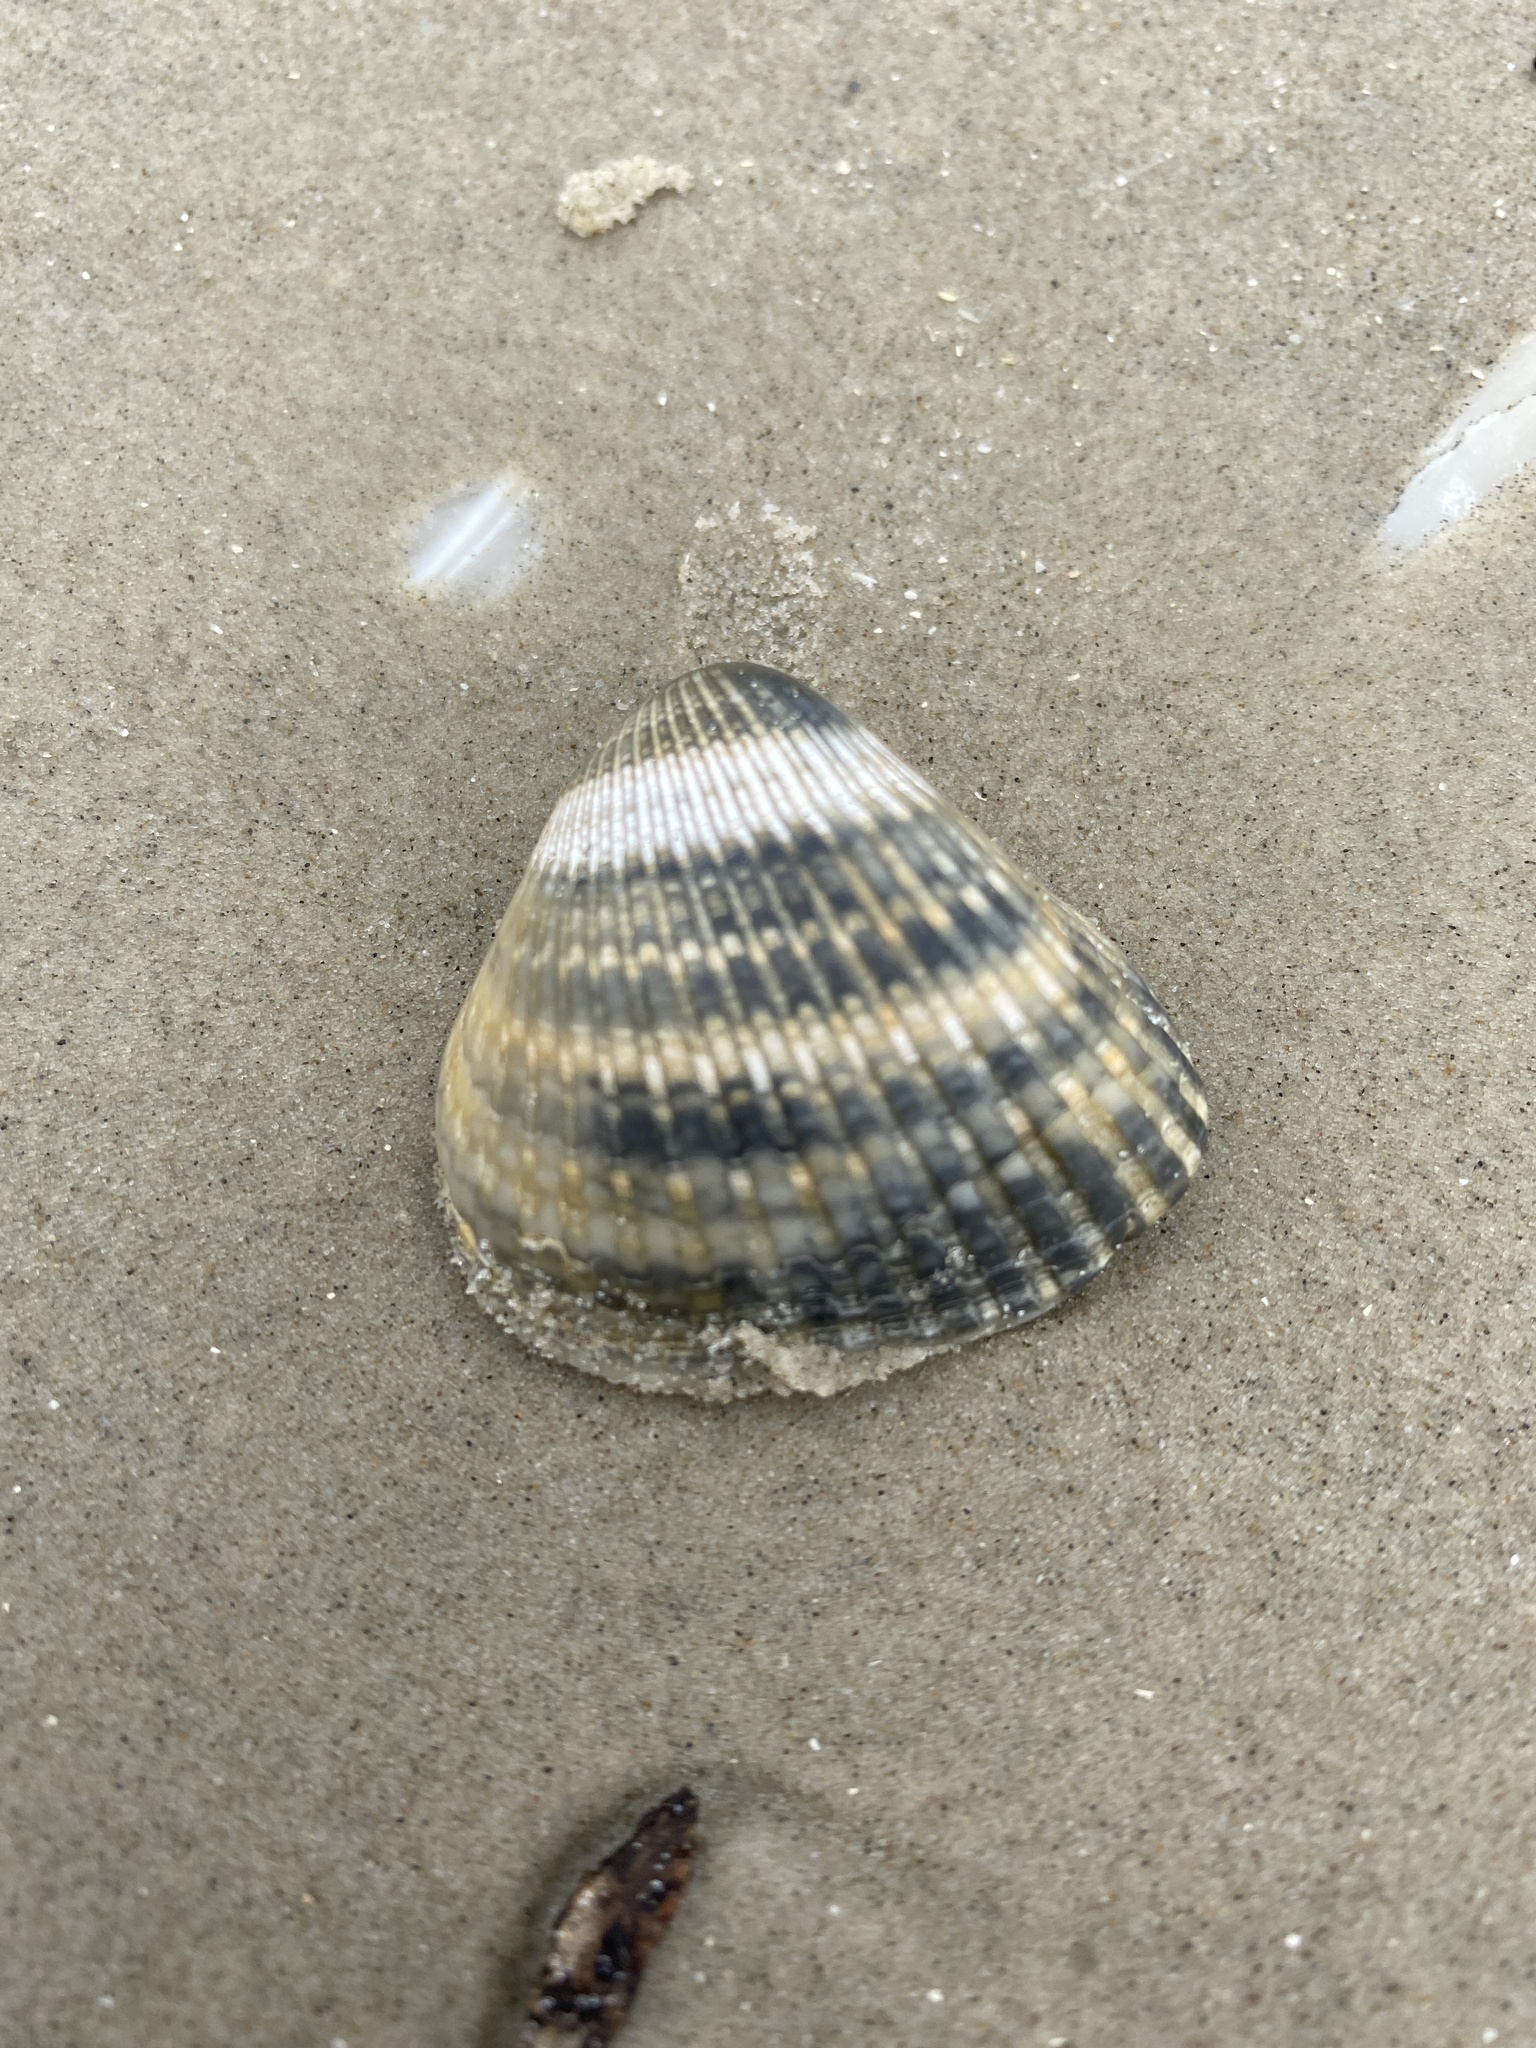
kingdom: Animalia
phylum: Mollusca
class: Bivalvia
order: Arcida
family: Noetiidae
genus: Noetia
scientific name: Noetia ponderosa
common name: Ponderous ark
